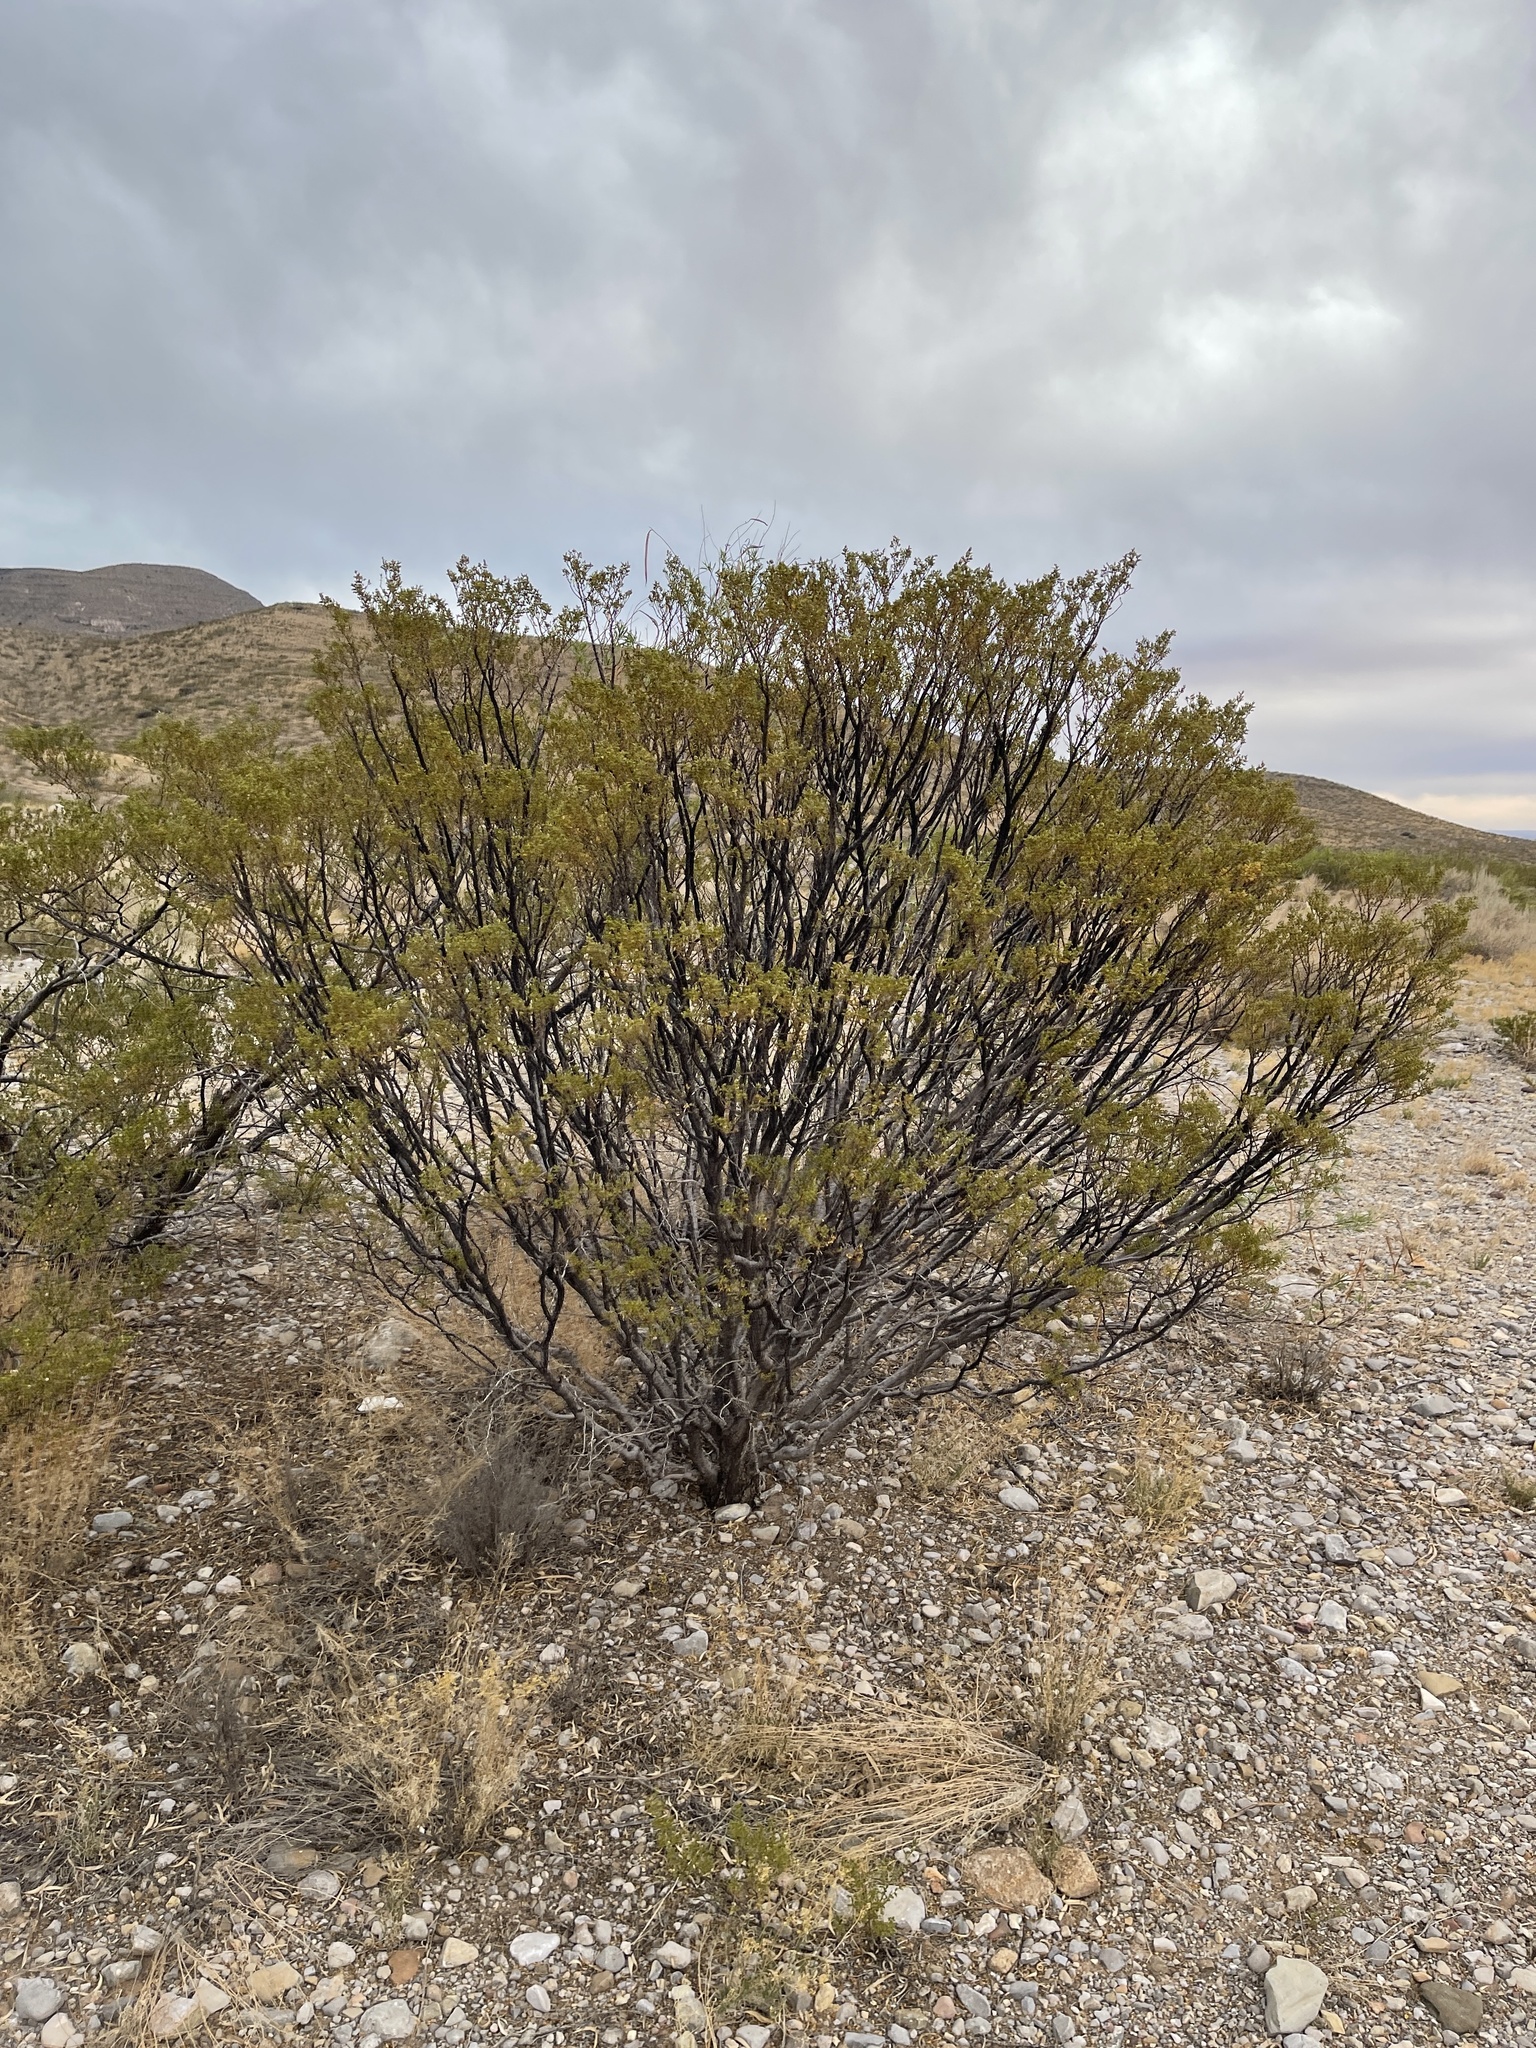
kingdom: Plantae
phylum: Tracheophyta
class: Magnoliopsida
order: Zygophyllales
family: Zygophyllaceae
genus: Larrea
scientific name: Larrea tridentata
